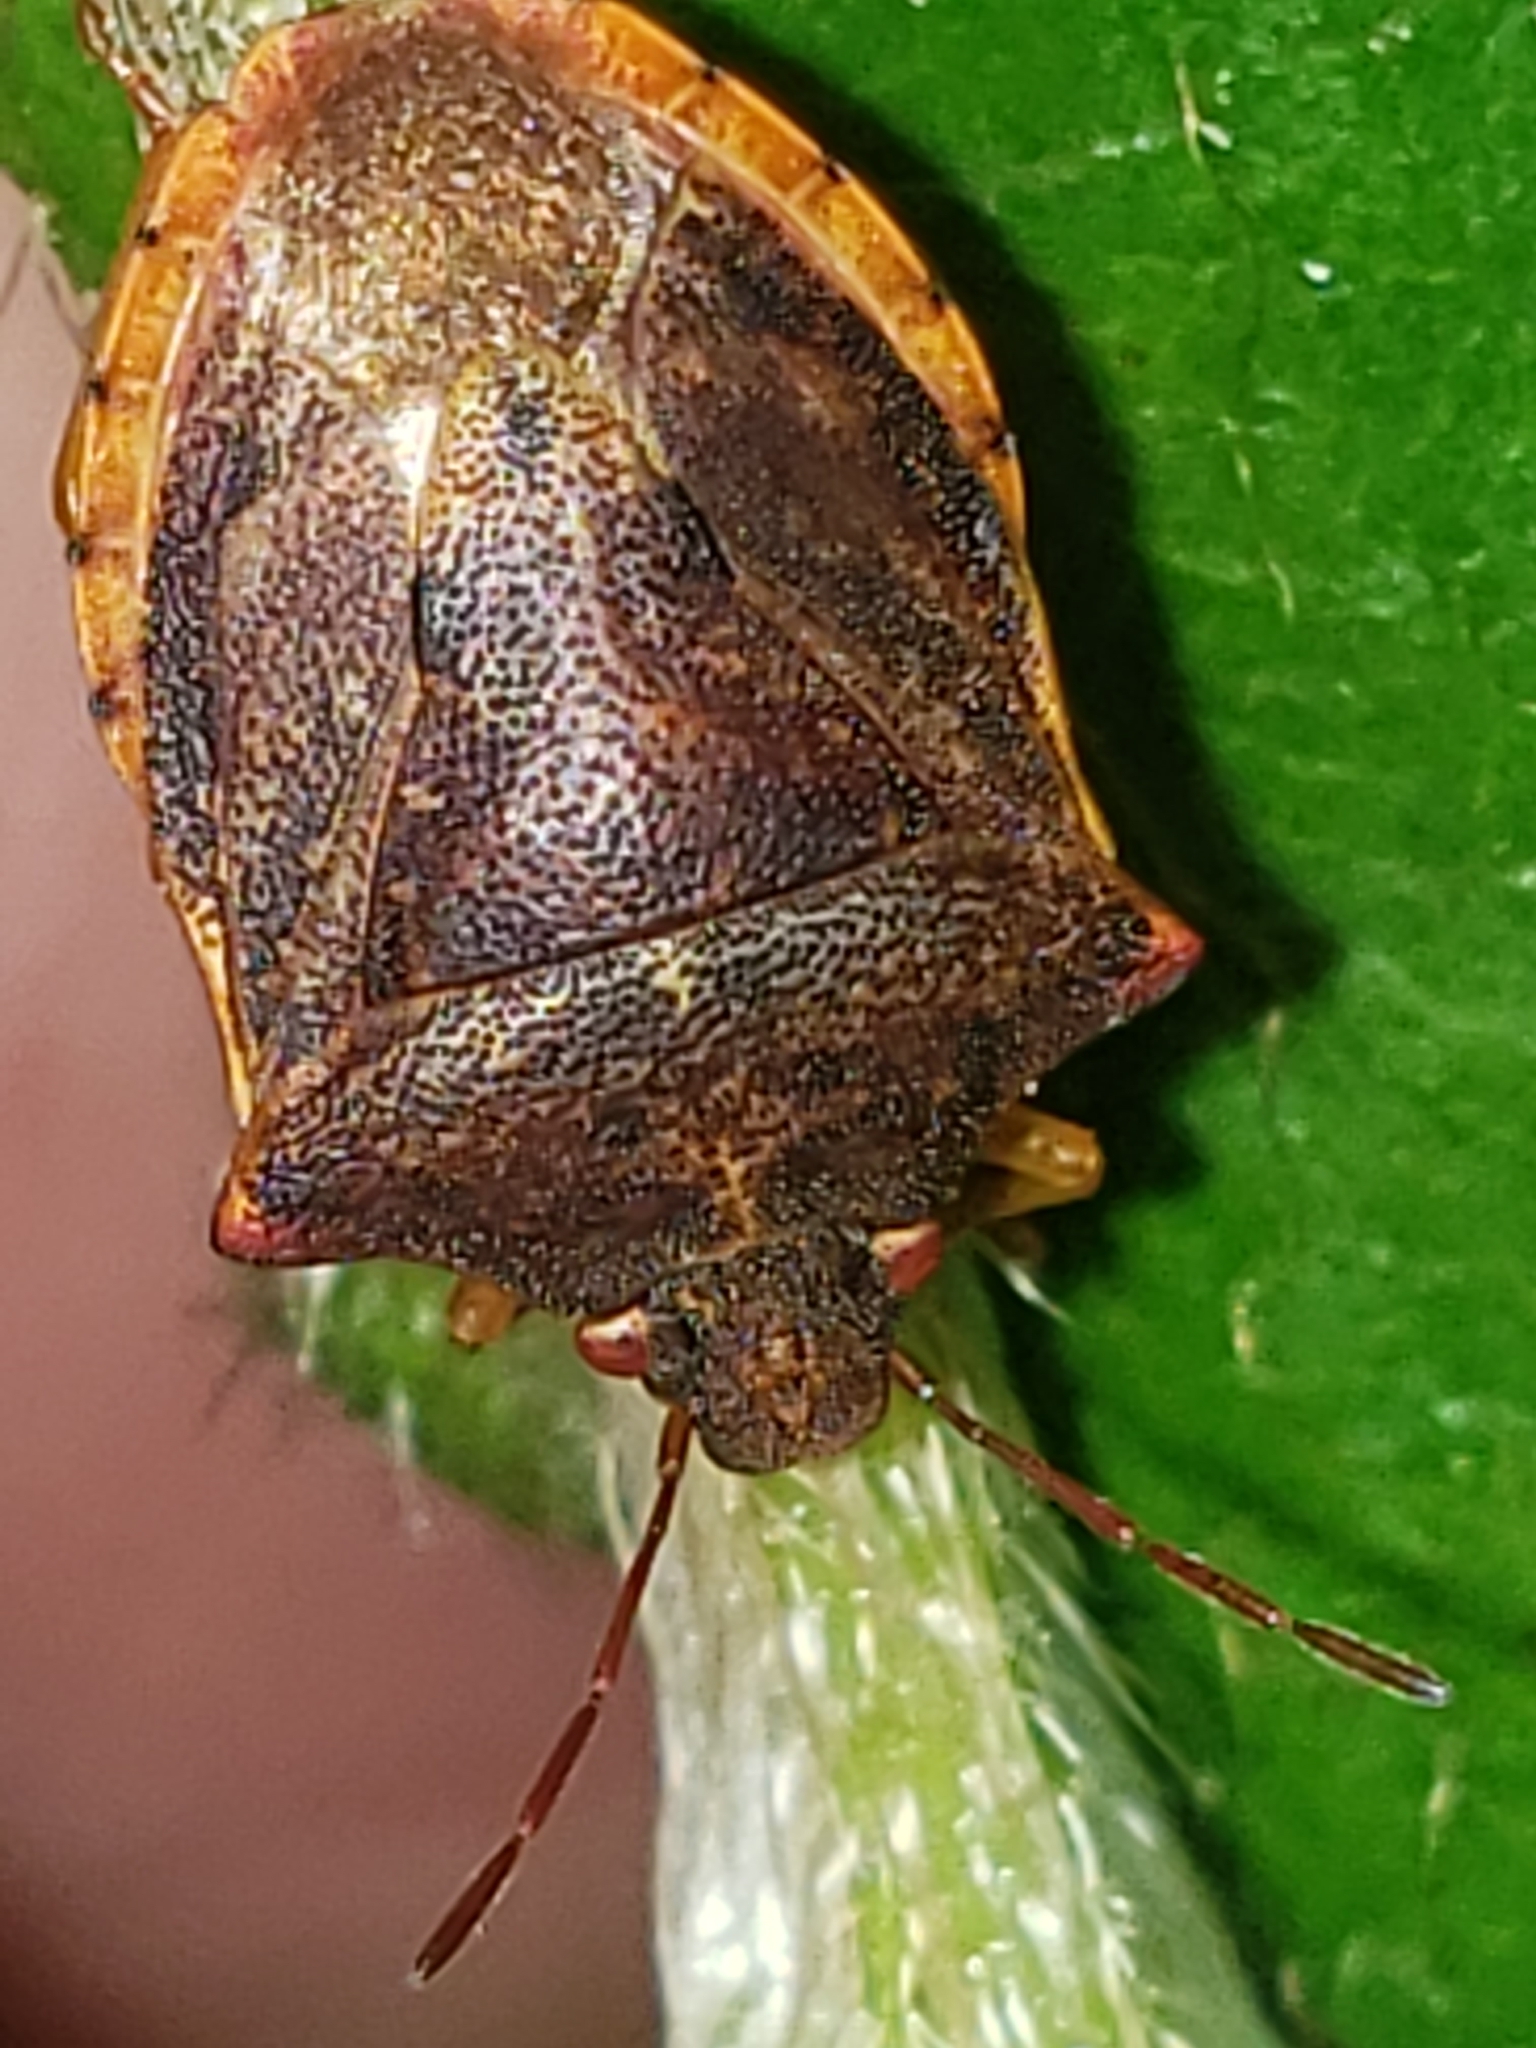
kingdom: Animalia
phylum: Arthropoda
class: Insecta
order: Hemiptera
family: Pentatomidae
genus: Dendrocoris
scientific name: Dendrocoris humeralis
